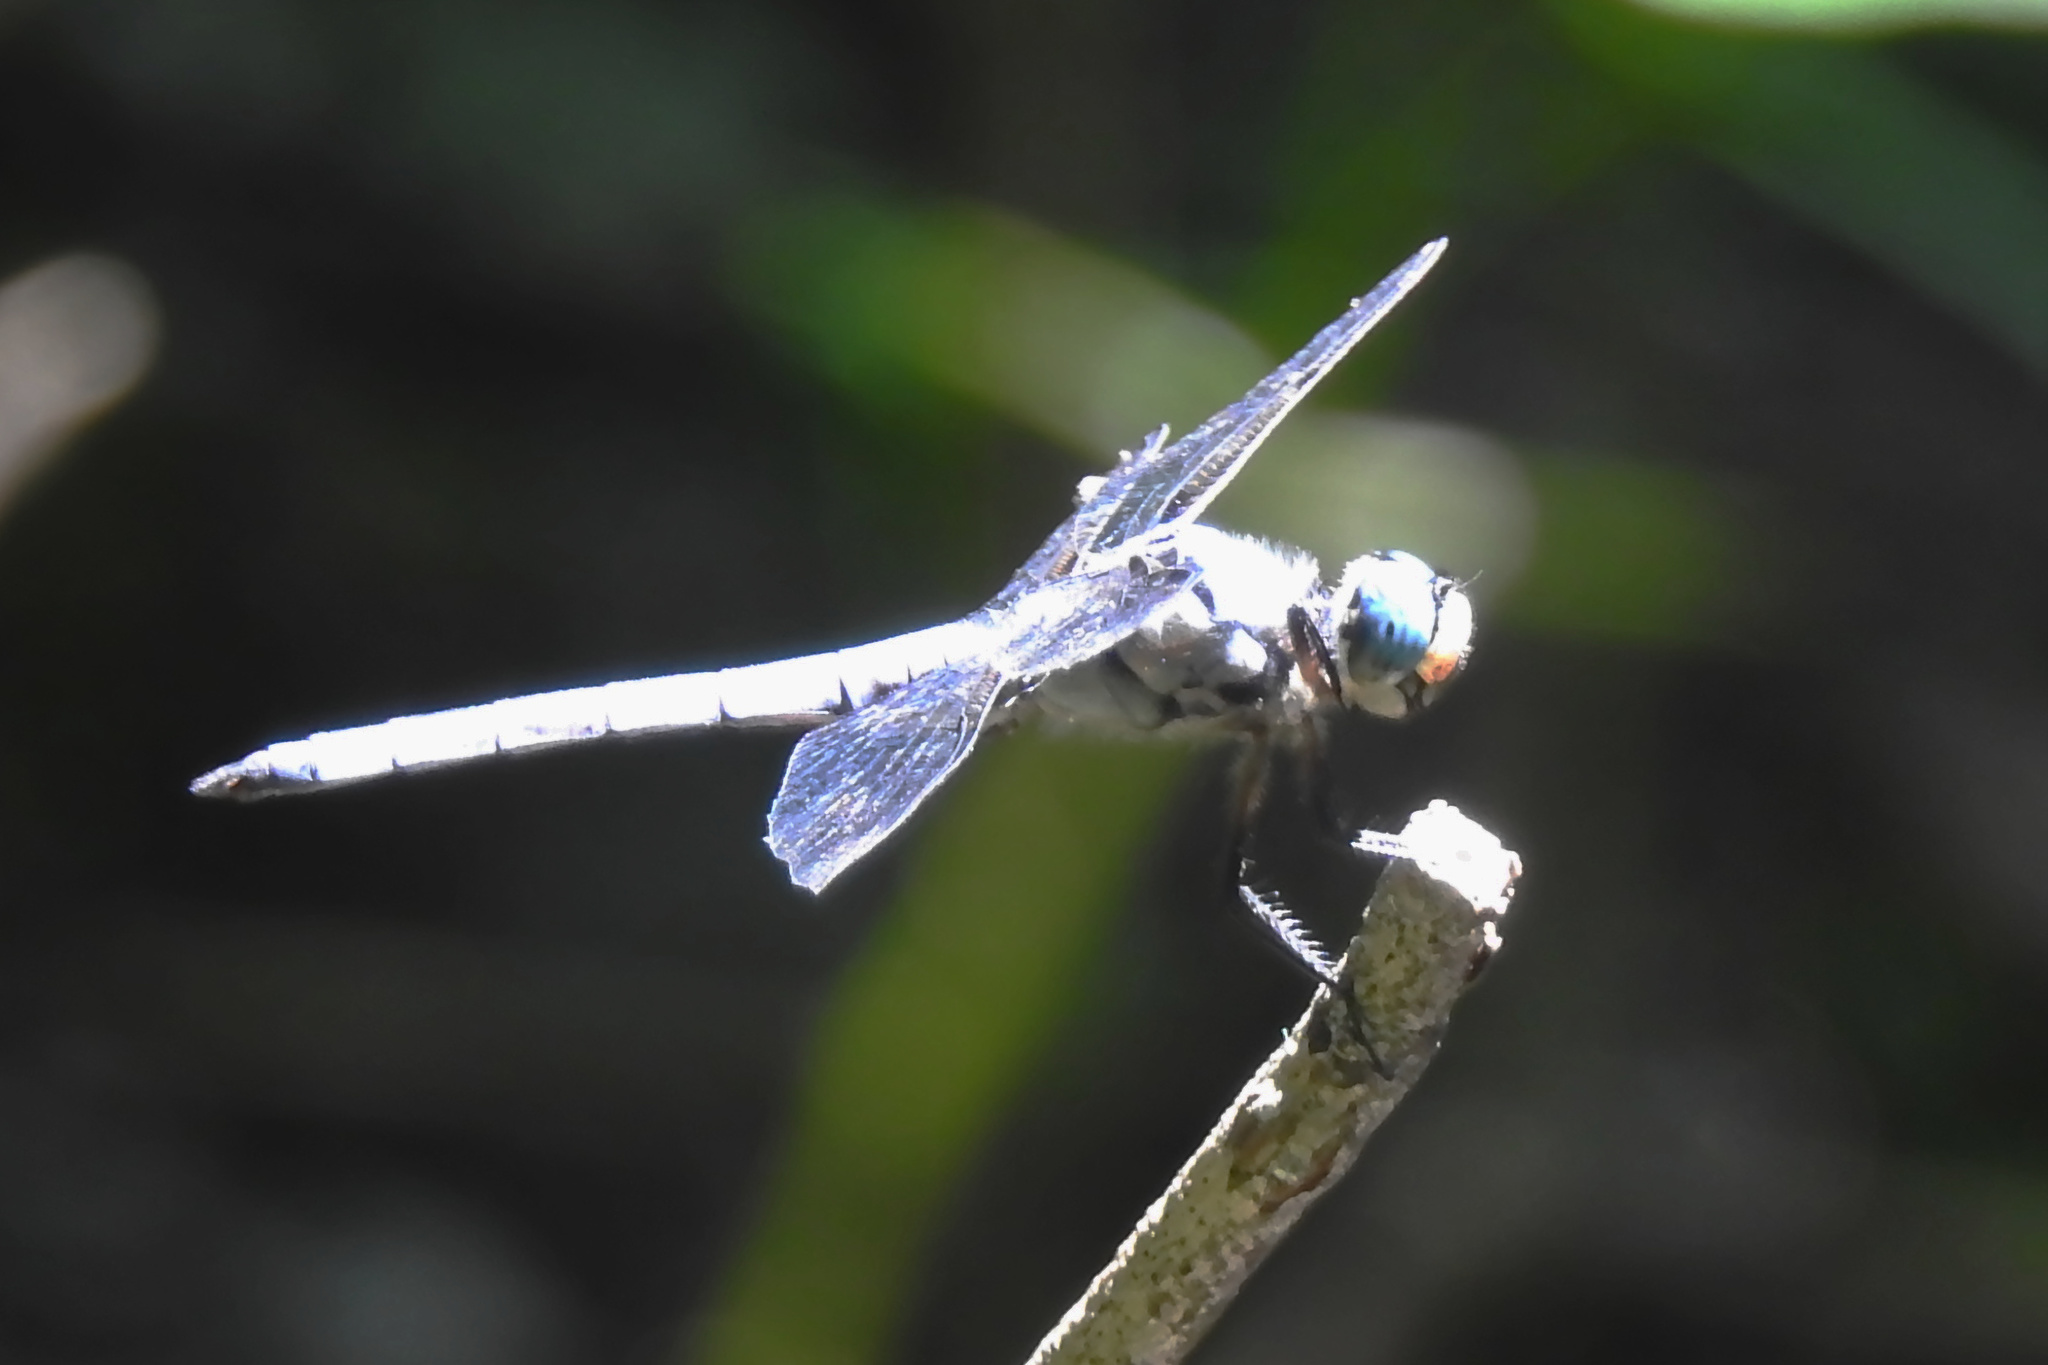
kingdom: Animalia
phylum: Arthropoda
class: Insecta
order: Odonata
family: Libellulidae
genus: Libellula
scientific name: Libellula vibrans
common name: Great blue skimmer
